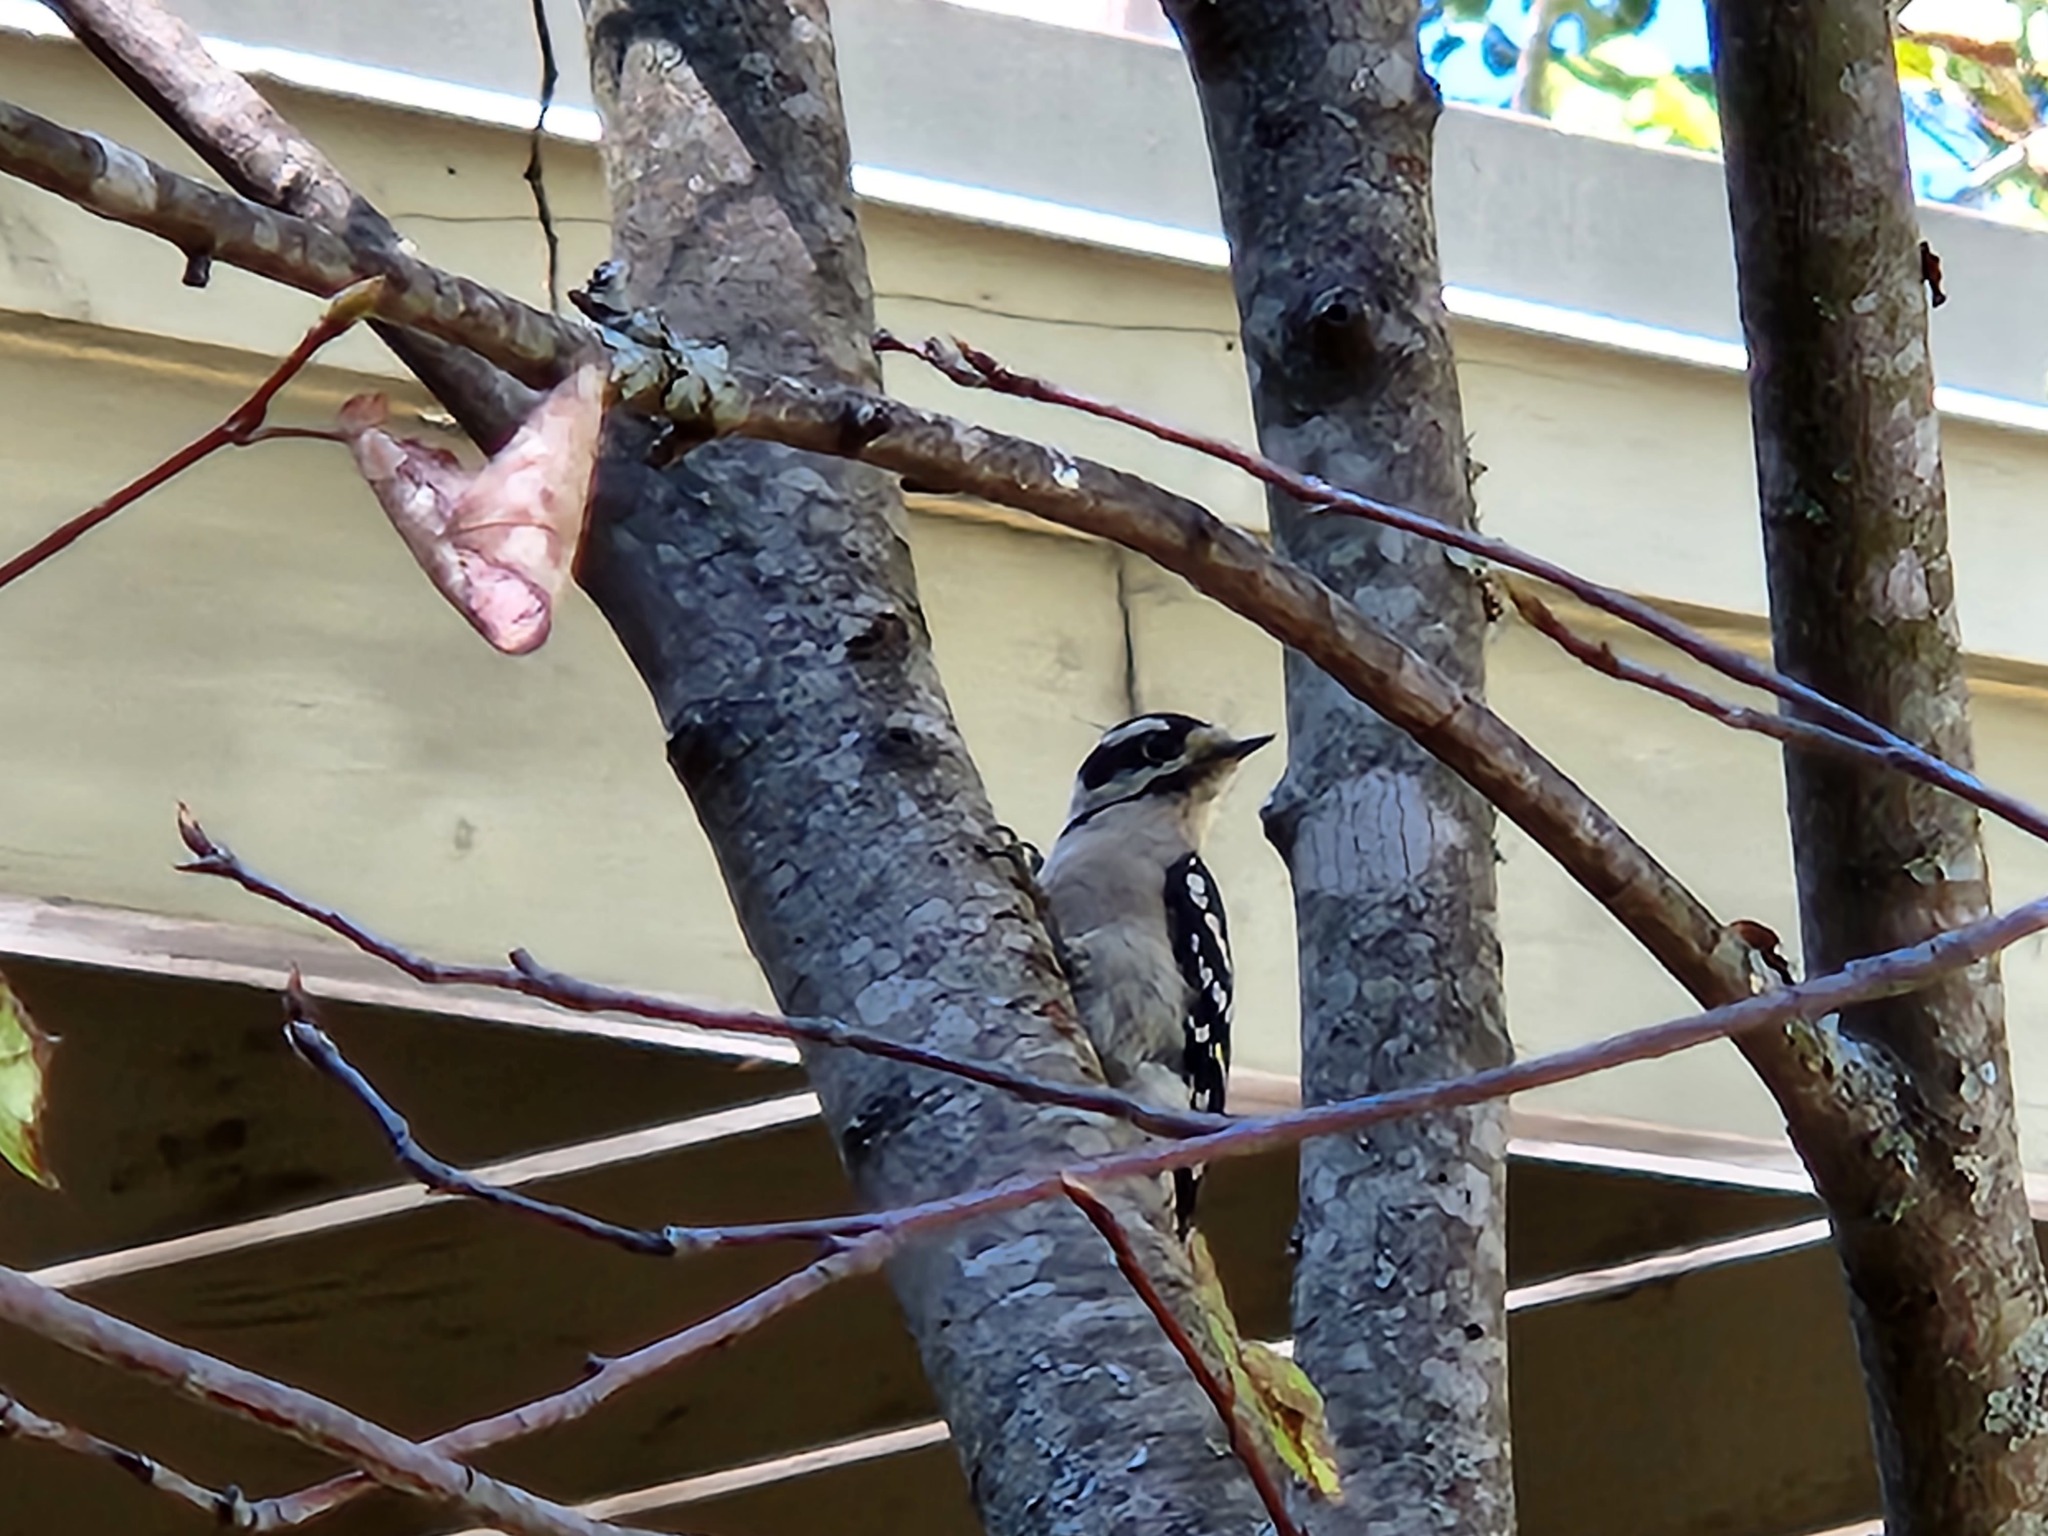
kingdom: Animalia
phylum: Chordata
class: Aves
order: Piciformes
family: Picidae
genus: Dryobates
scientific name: Dryobates pubescens
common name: Downy woodpecker
